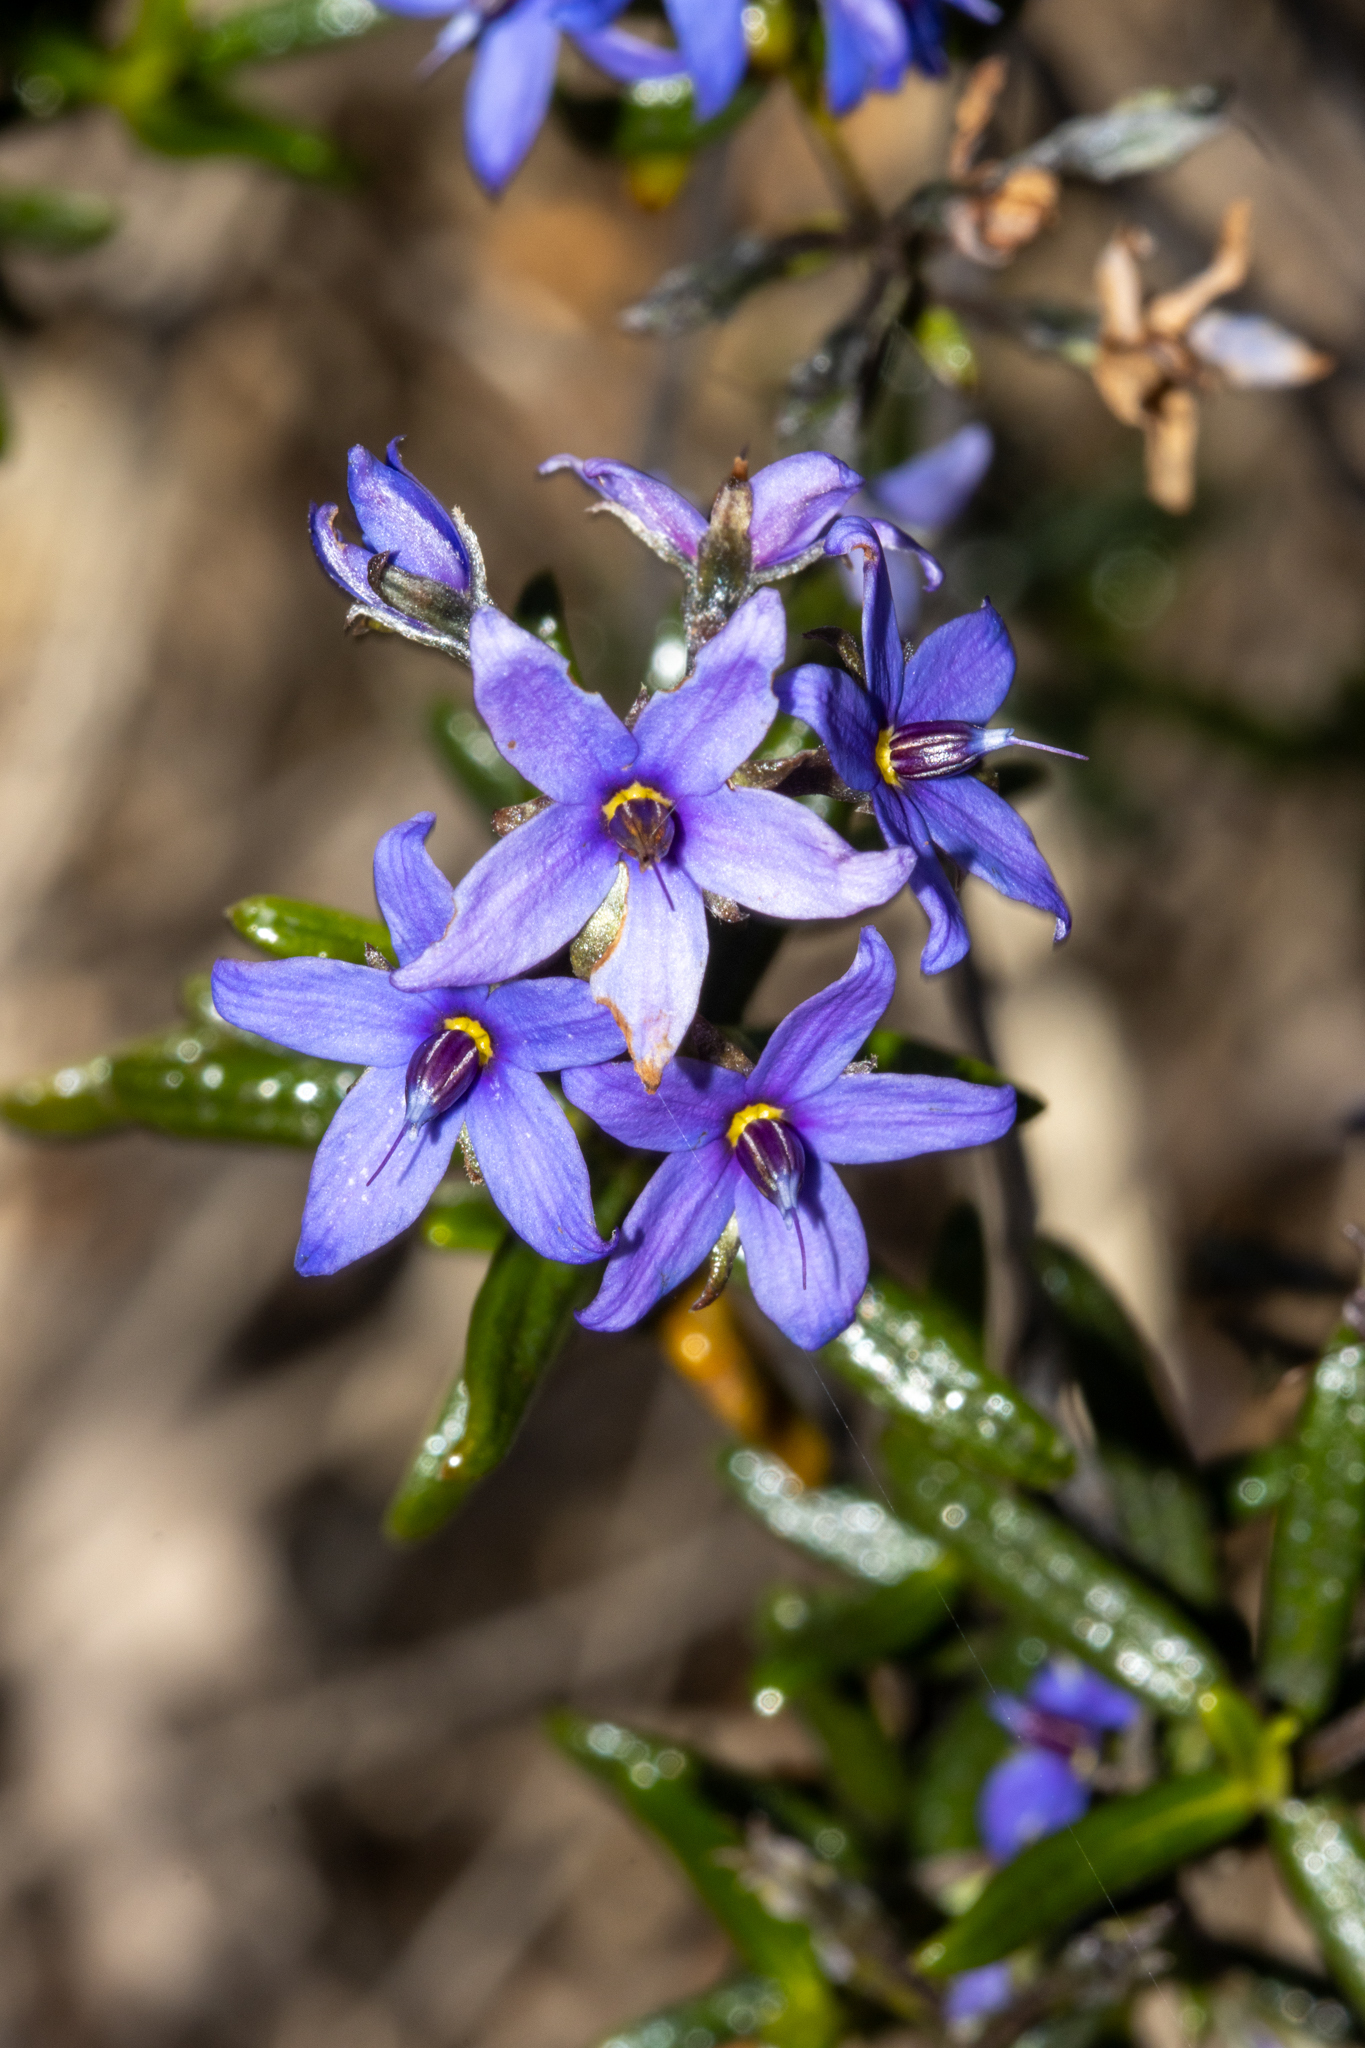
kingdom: Plantae
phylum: Tracheophyta
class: Magnoliopsida
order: Boraginales
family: Ehretiaceae
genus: Halgania
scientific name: Halgania andromedifolia
